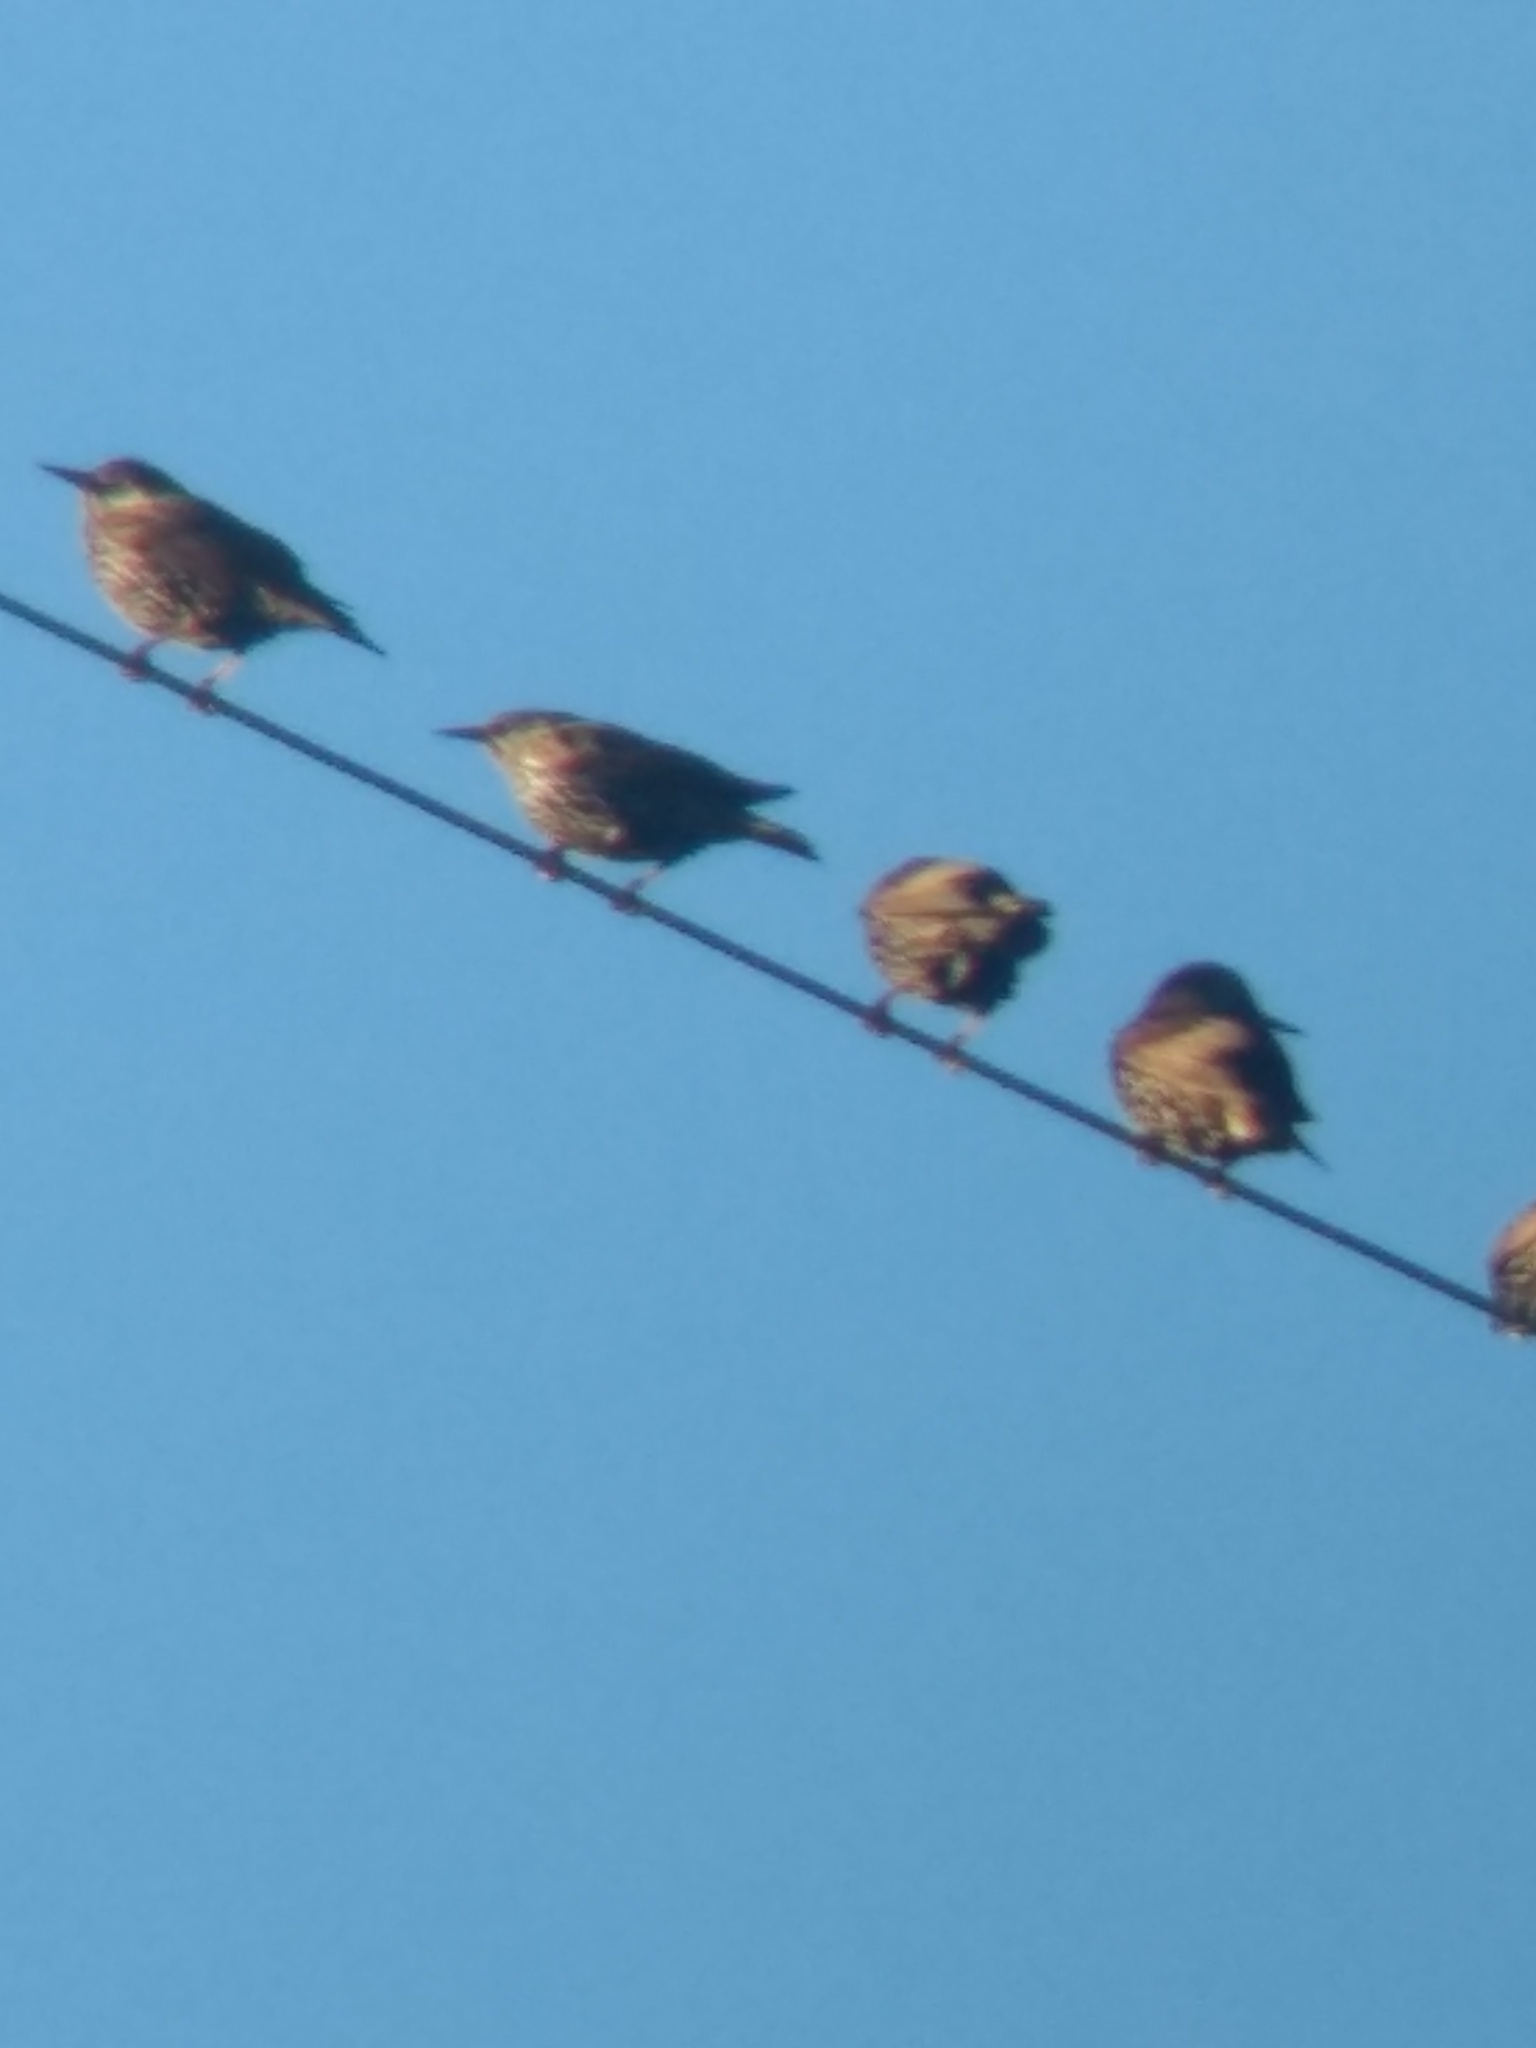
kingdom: Animalia
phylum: Chordata
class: Aves
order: Passeriformes
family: Sturnidae
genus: Sturnus
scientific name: Sturnus vulgaris
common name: Common starling
